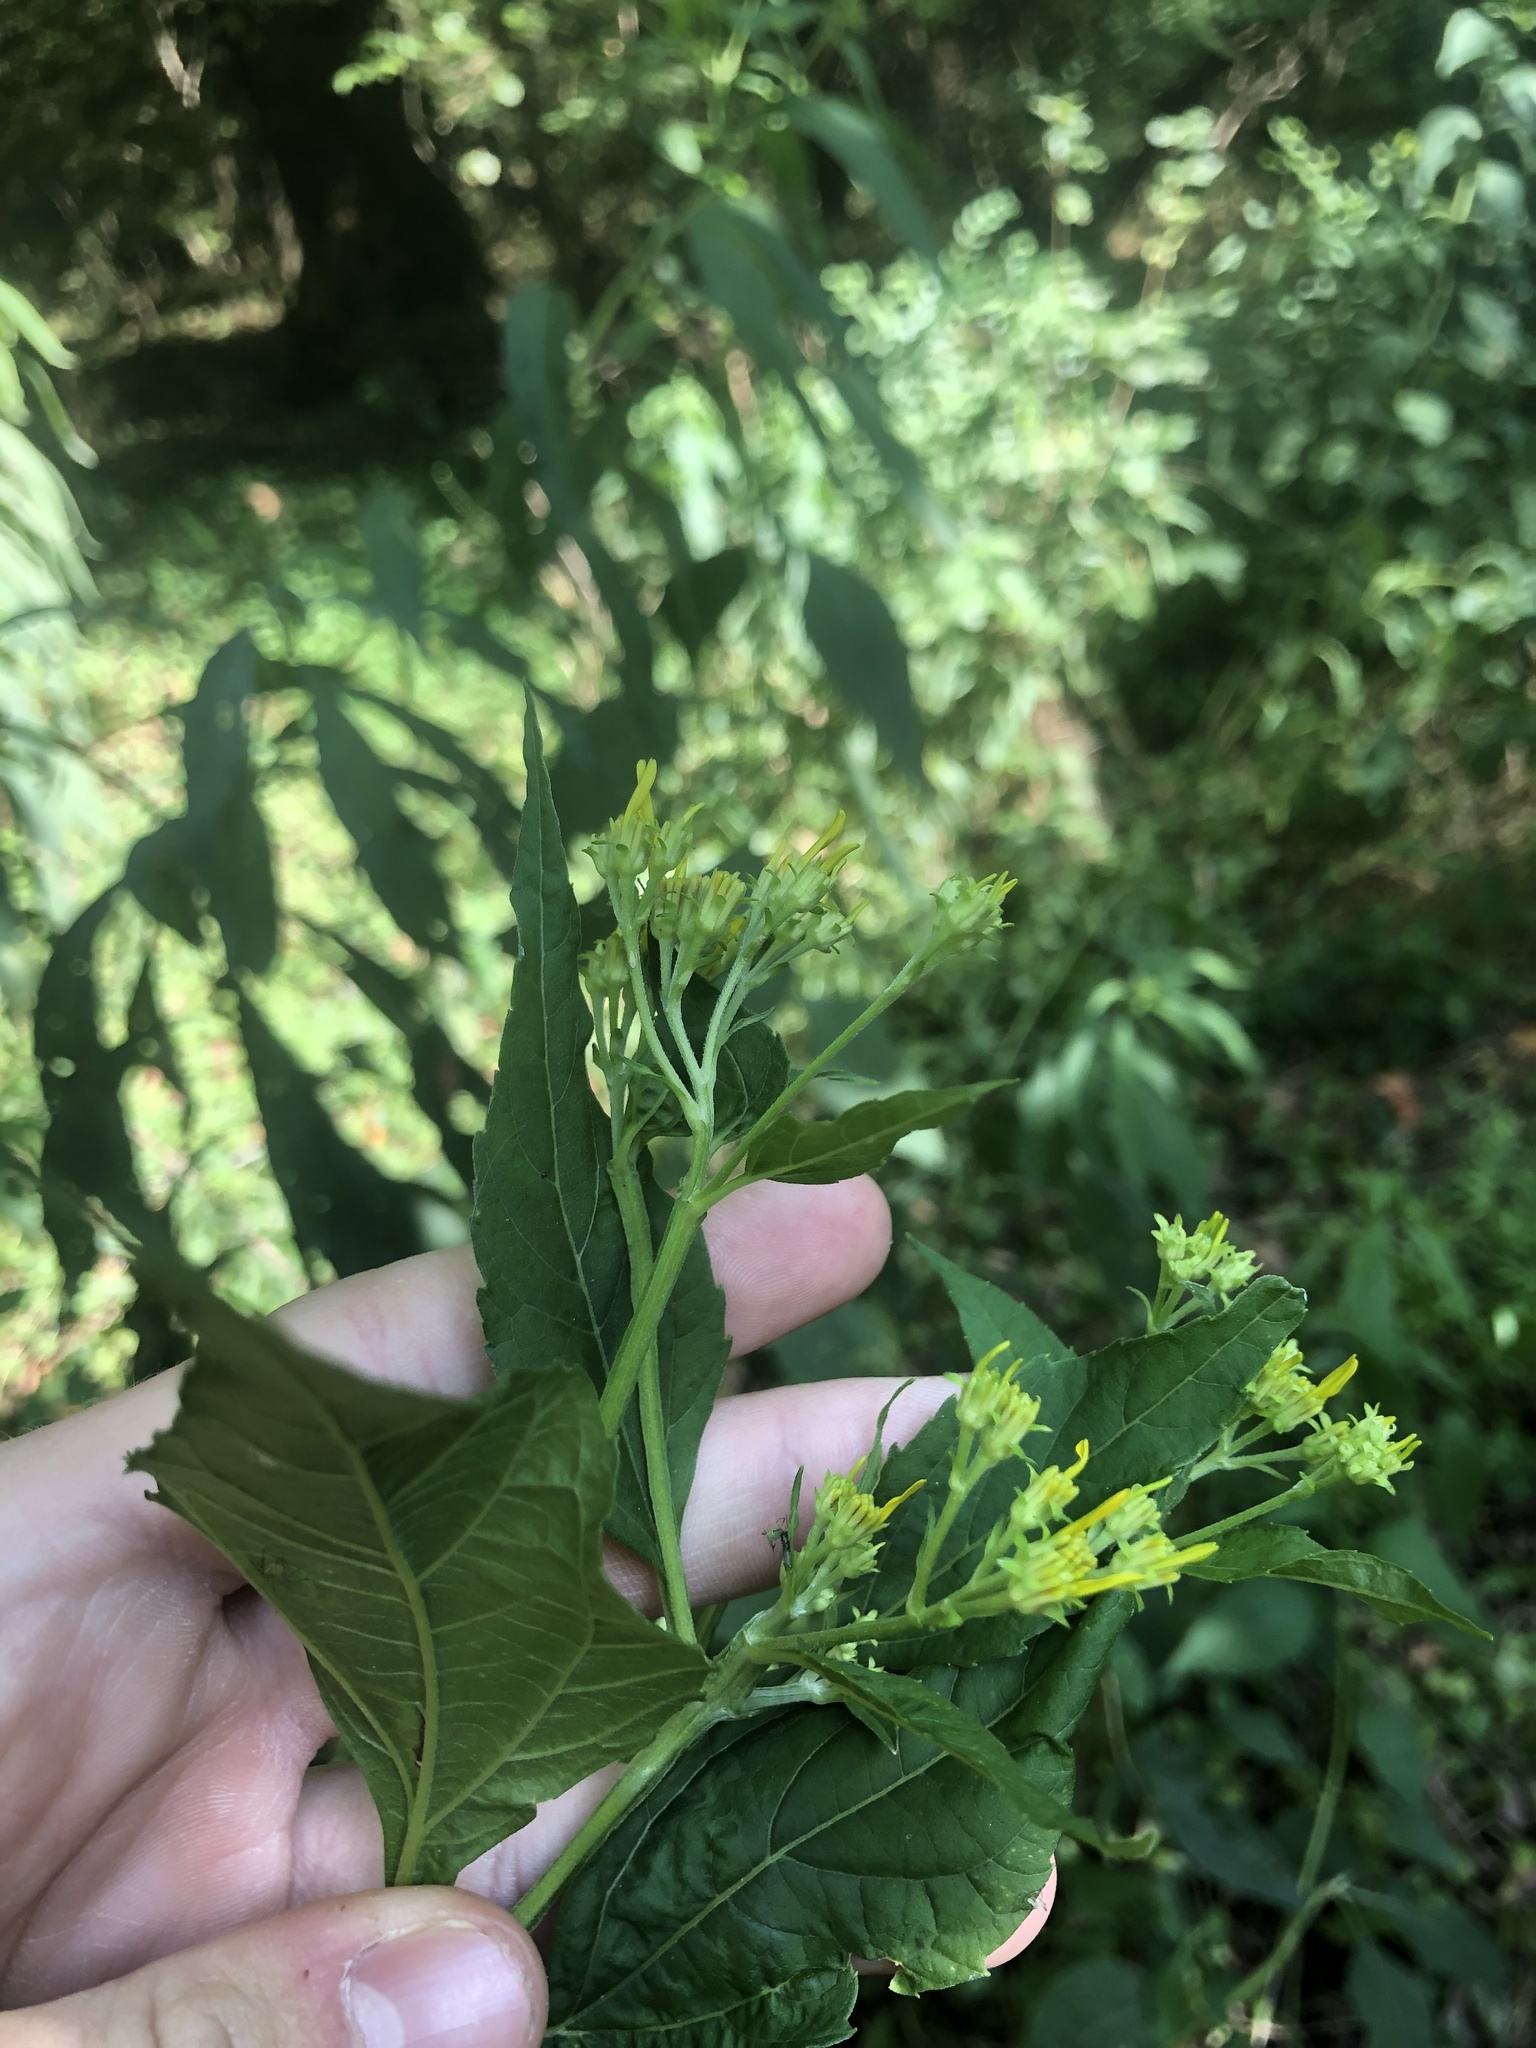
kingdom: Plantae
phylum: Tracheophyta
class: Magnoliopsida
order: Asterales
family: Asteraceae
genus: Verbesina
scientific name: Verbesina occidentalis
